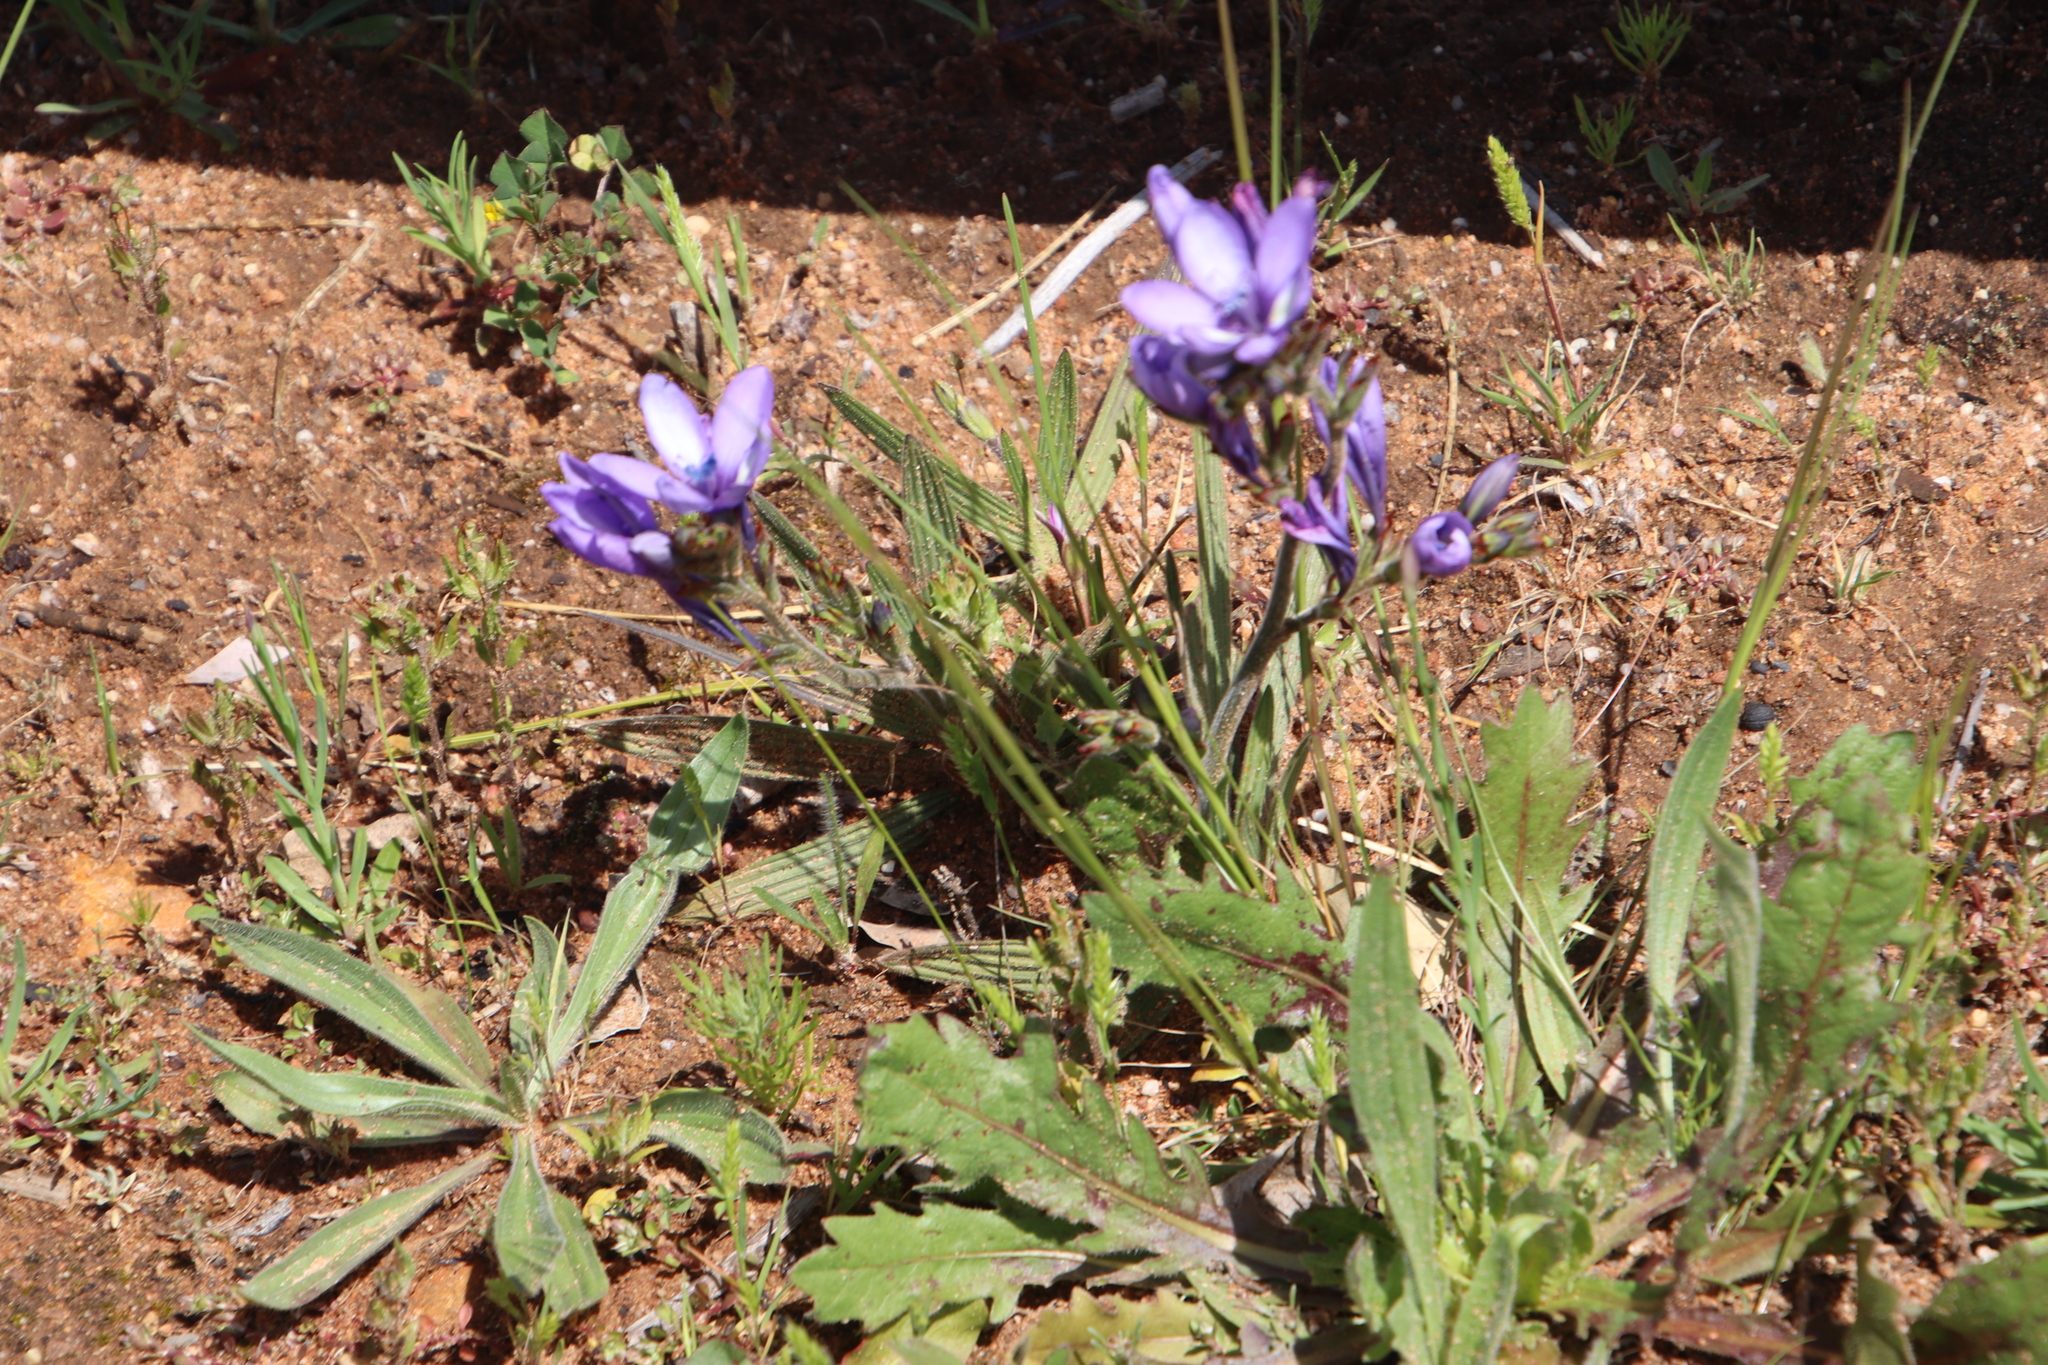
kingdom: Plantae
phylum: Tracheophyta
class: Liliopsida
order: Asparagales
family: Iridaceae
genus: Babiana
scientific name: Babiana fragrans
